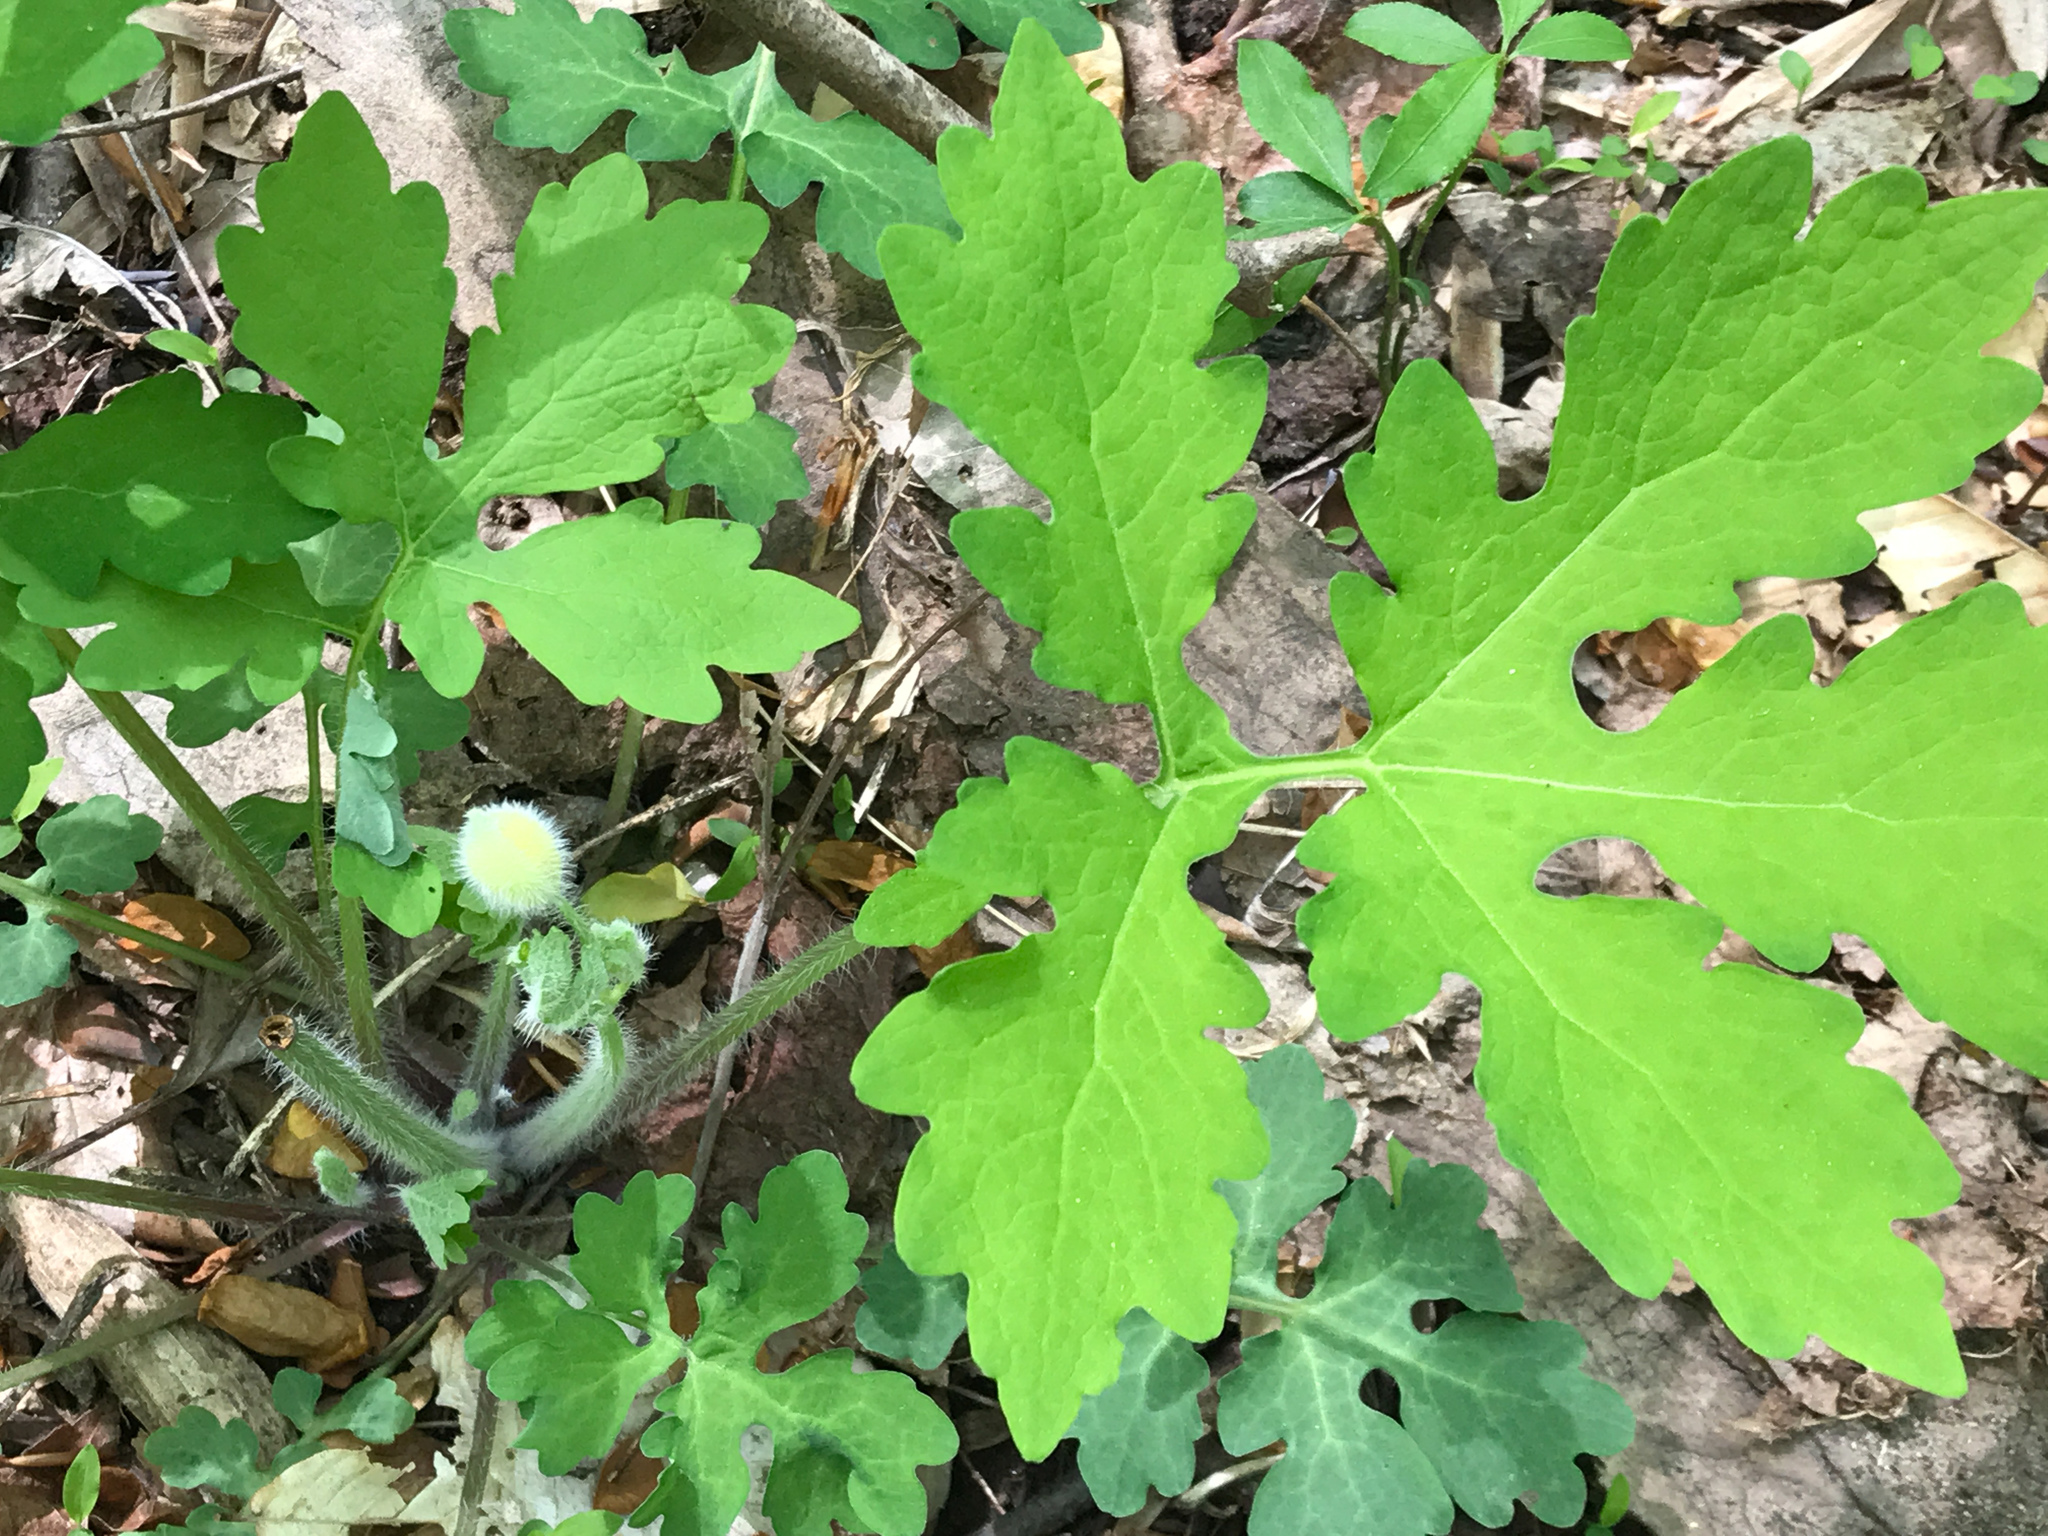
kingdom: Plantae
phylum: Tracheophyta
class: Magnoliopsida
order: Ranunculales
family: Papaveraceae
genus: Stylophorum
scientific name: Stylophorum diphyllum
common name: Celandine poppy
